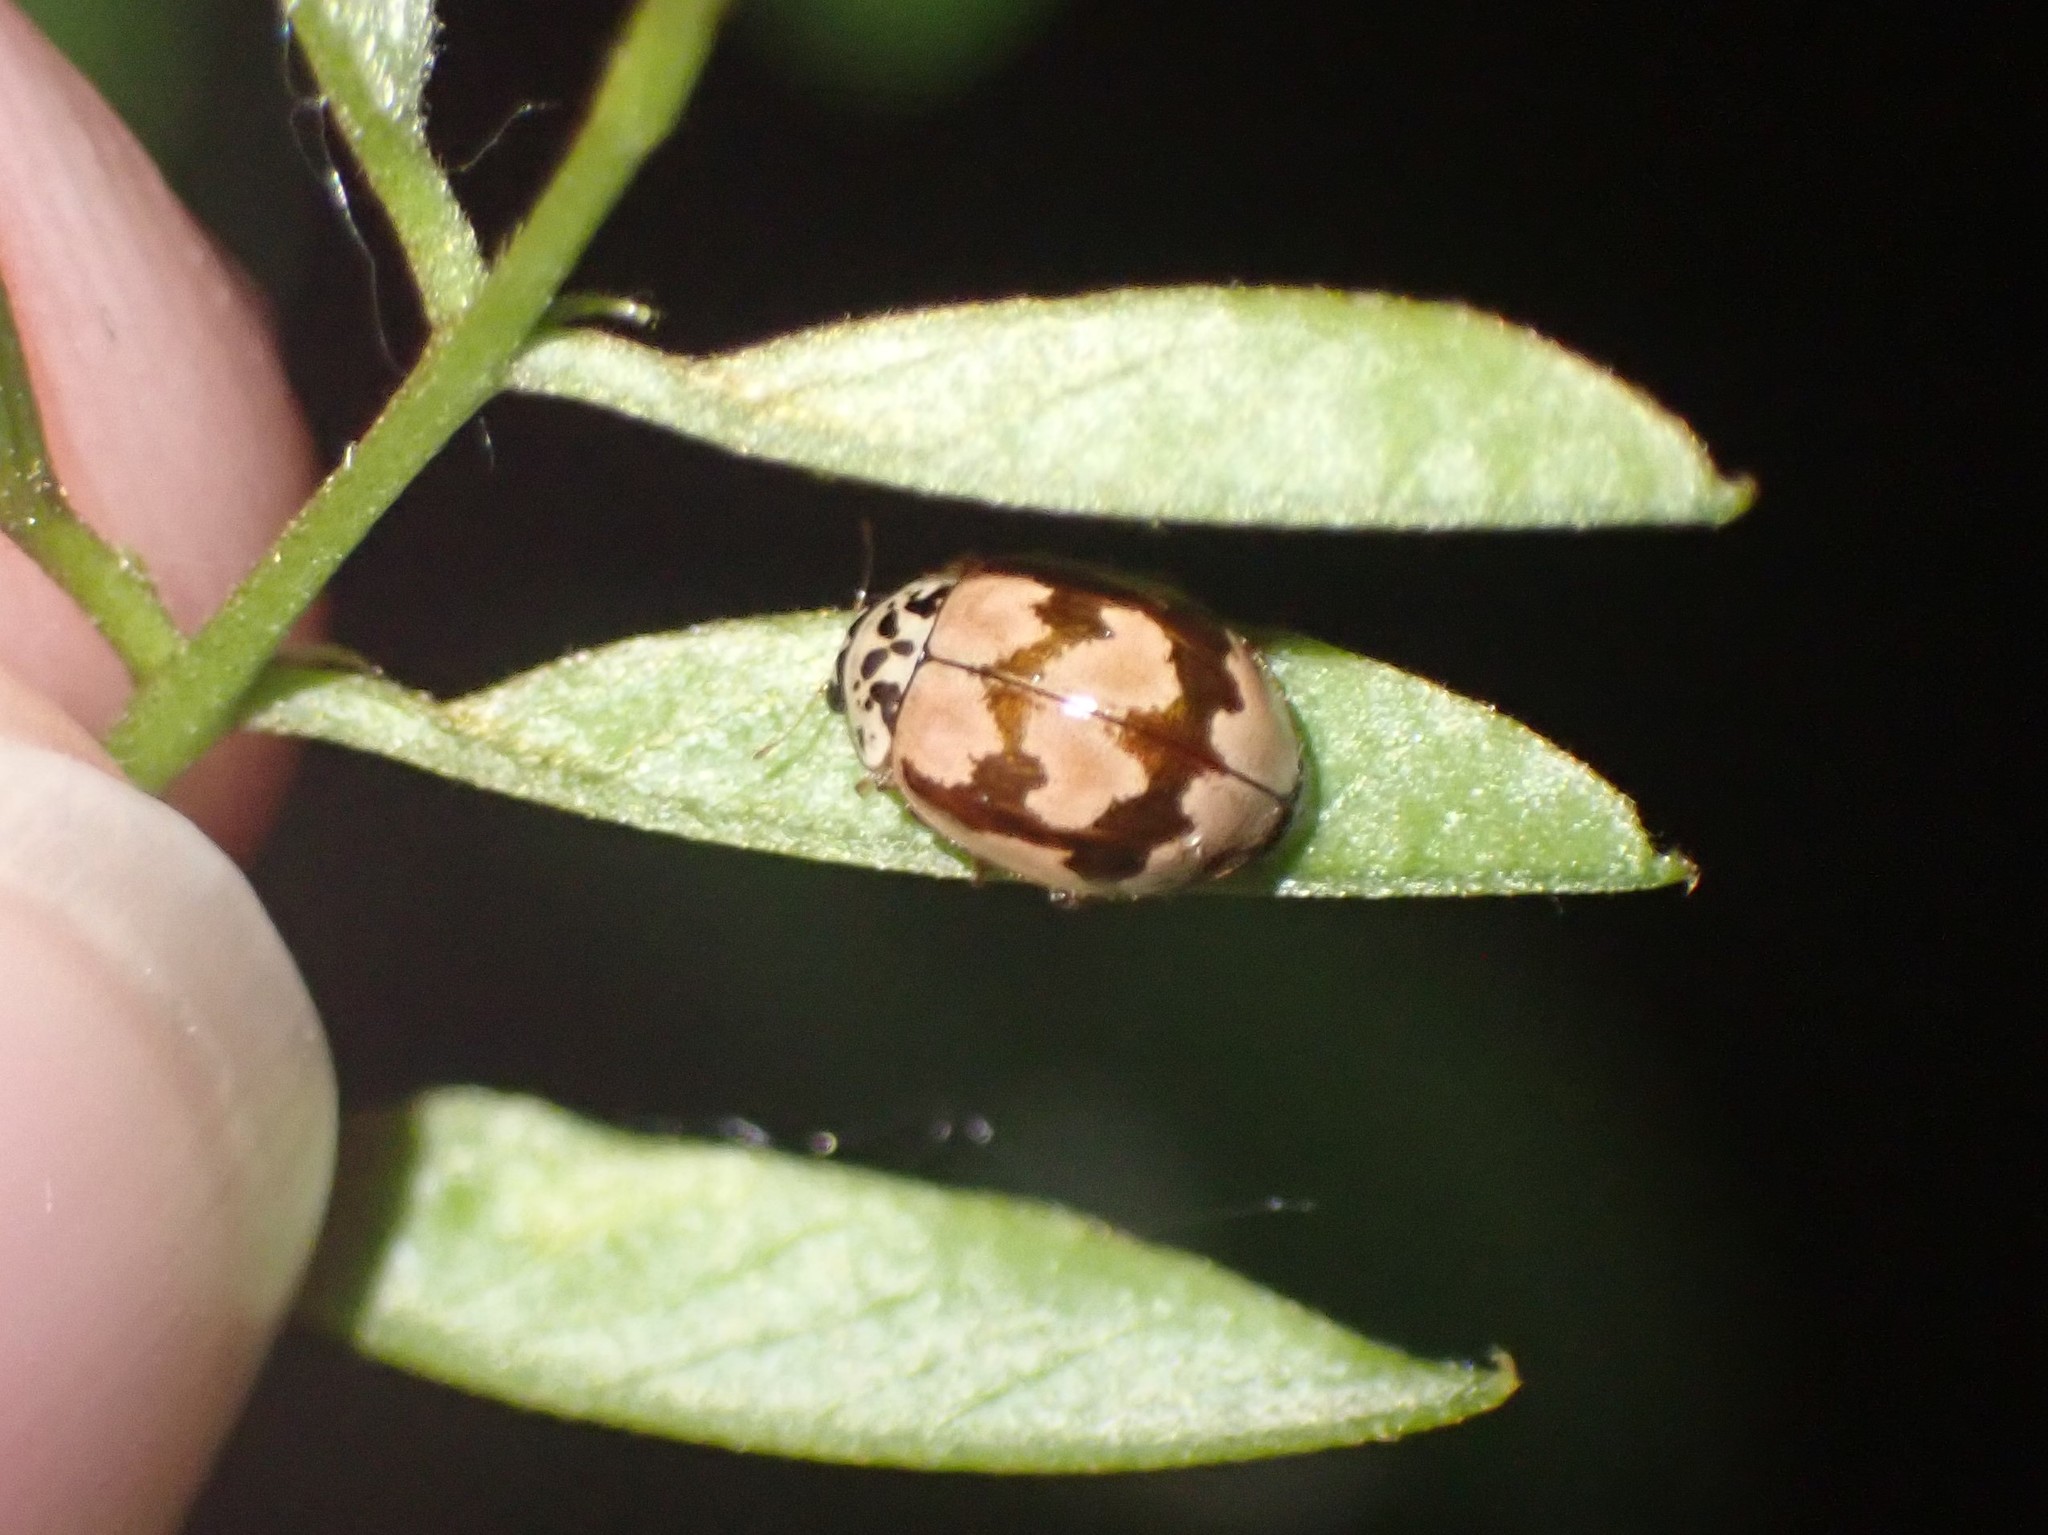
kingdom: Animalia
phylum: Arthropoda
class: Insecta
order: Coleoptera
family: Coccinellidae
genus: Mulsantina
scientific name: Mulsantina picta
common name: Painted ladybird
